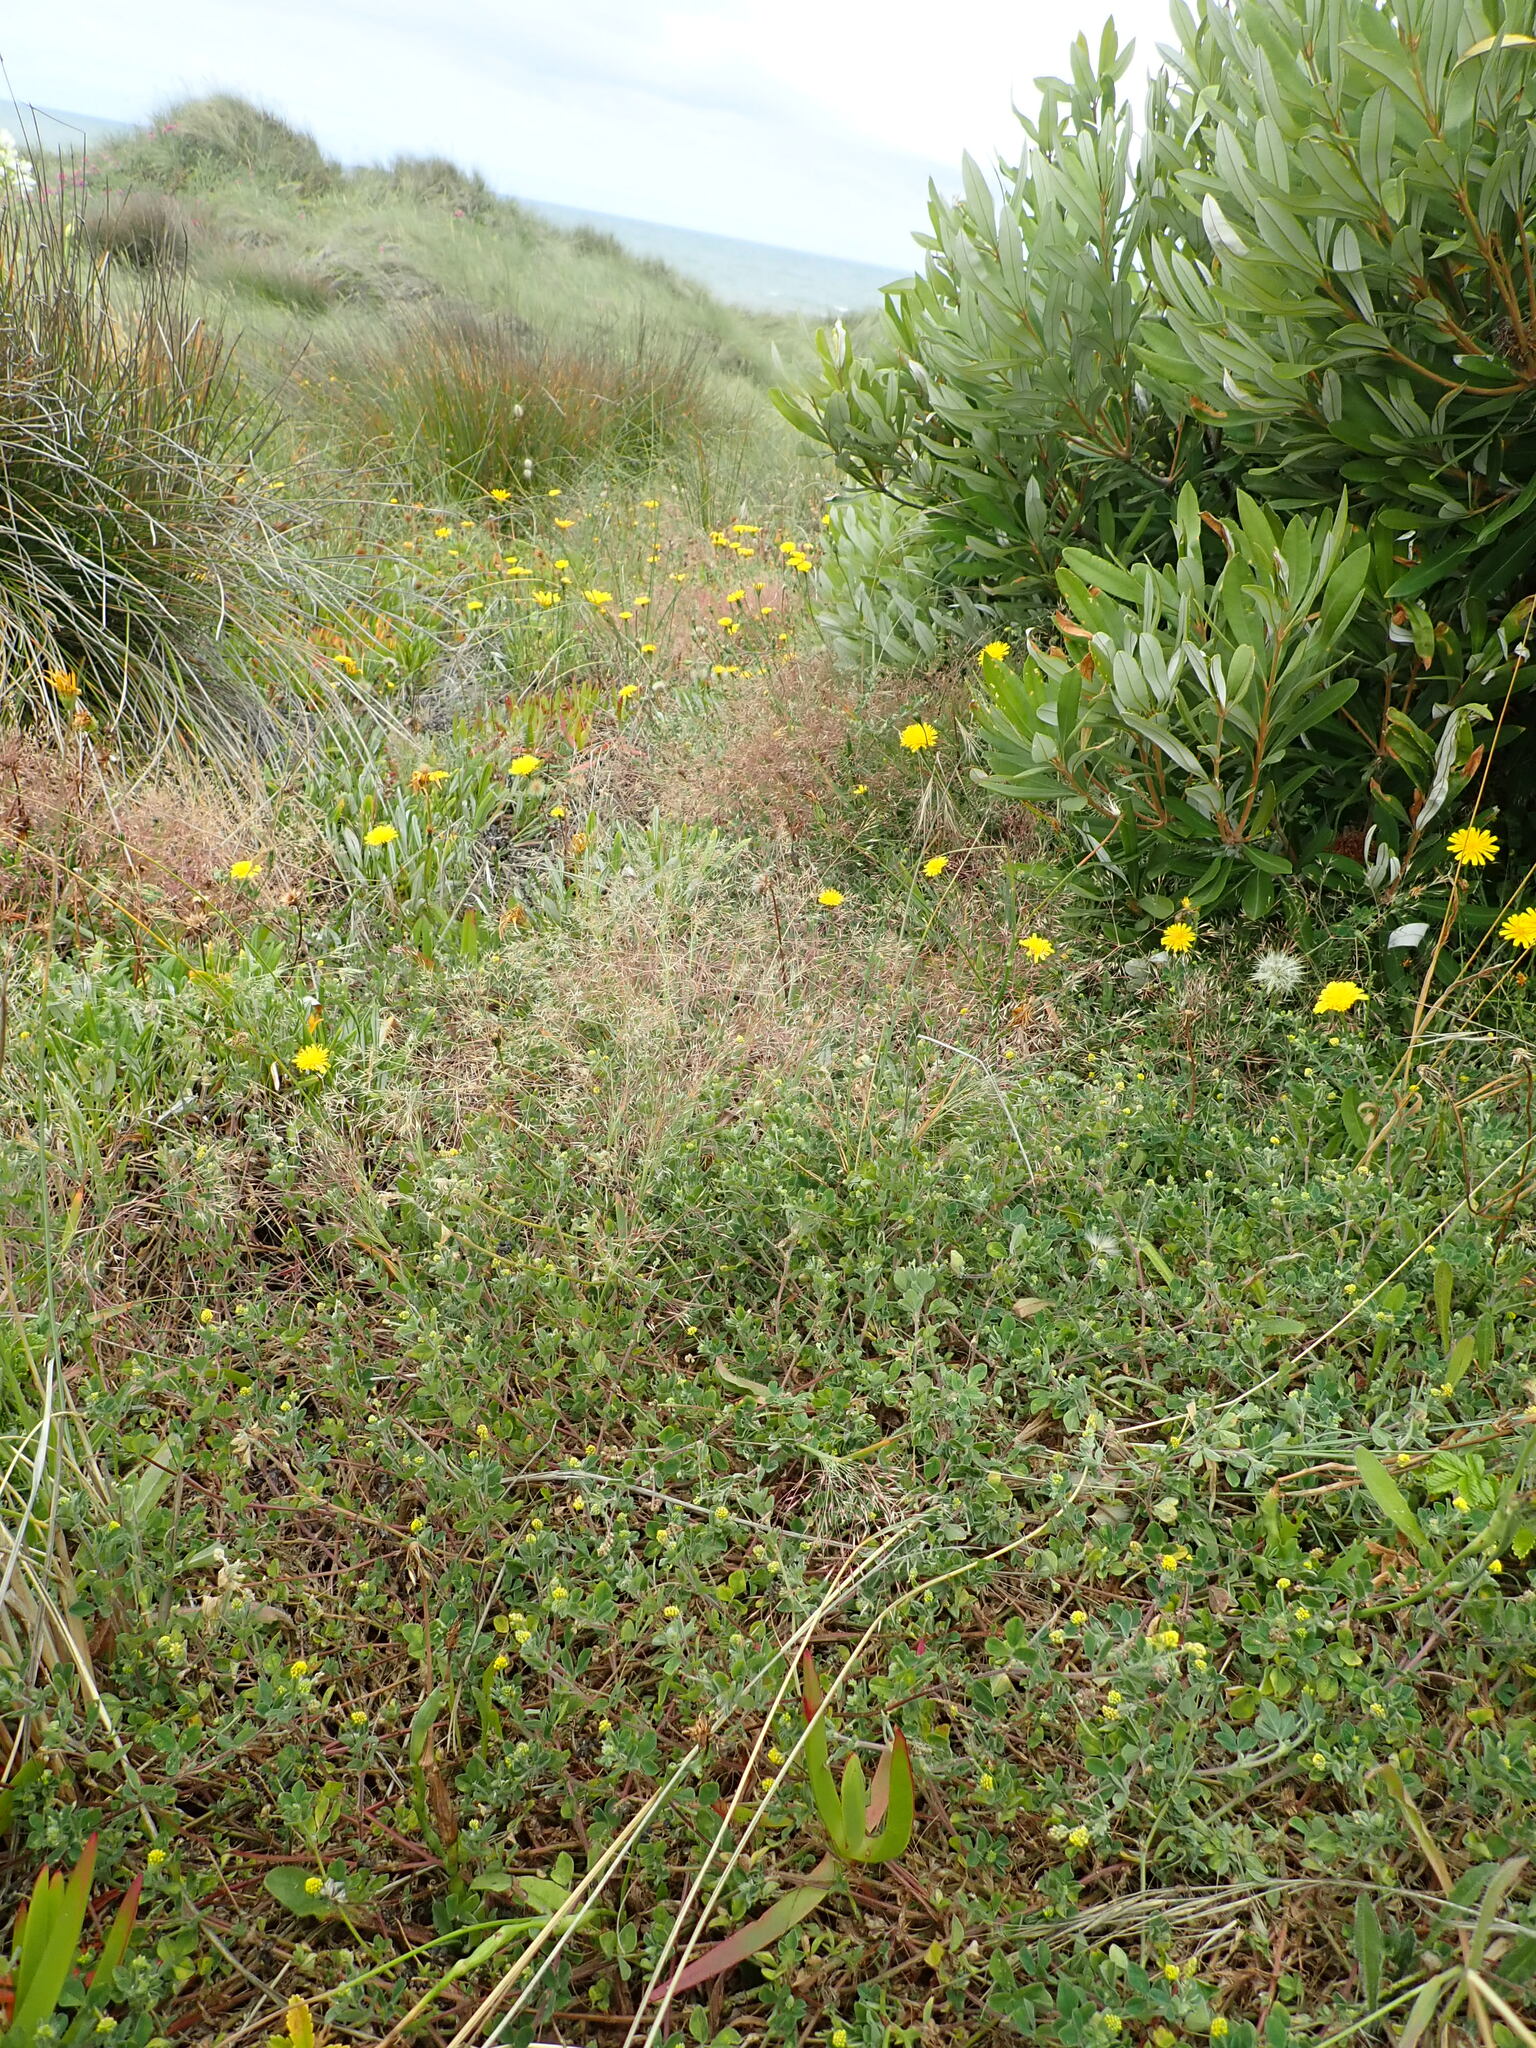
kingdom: Plantae
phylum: Tracheophyta
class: Magnoliopsida
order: Fabales
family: Fabaceae
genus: Medicago
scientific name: Medicago lupulina
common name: Black medick
